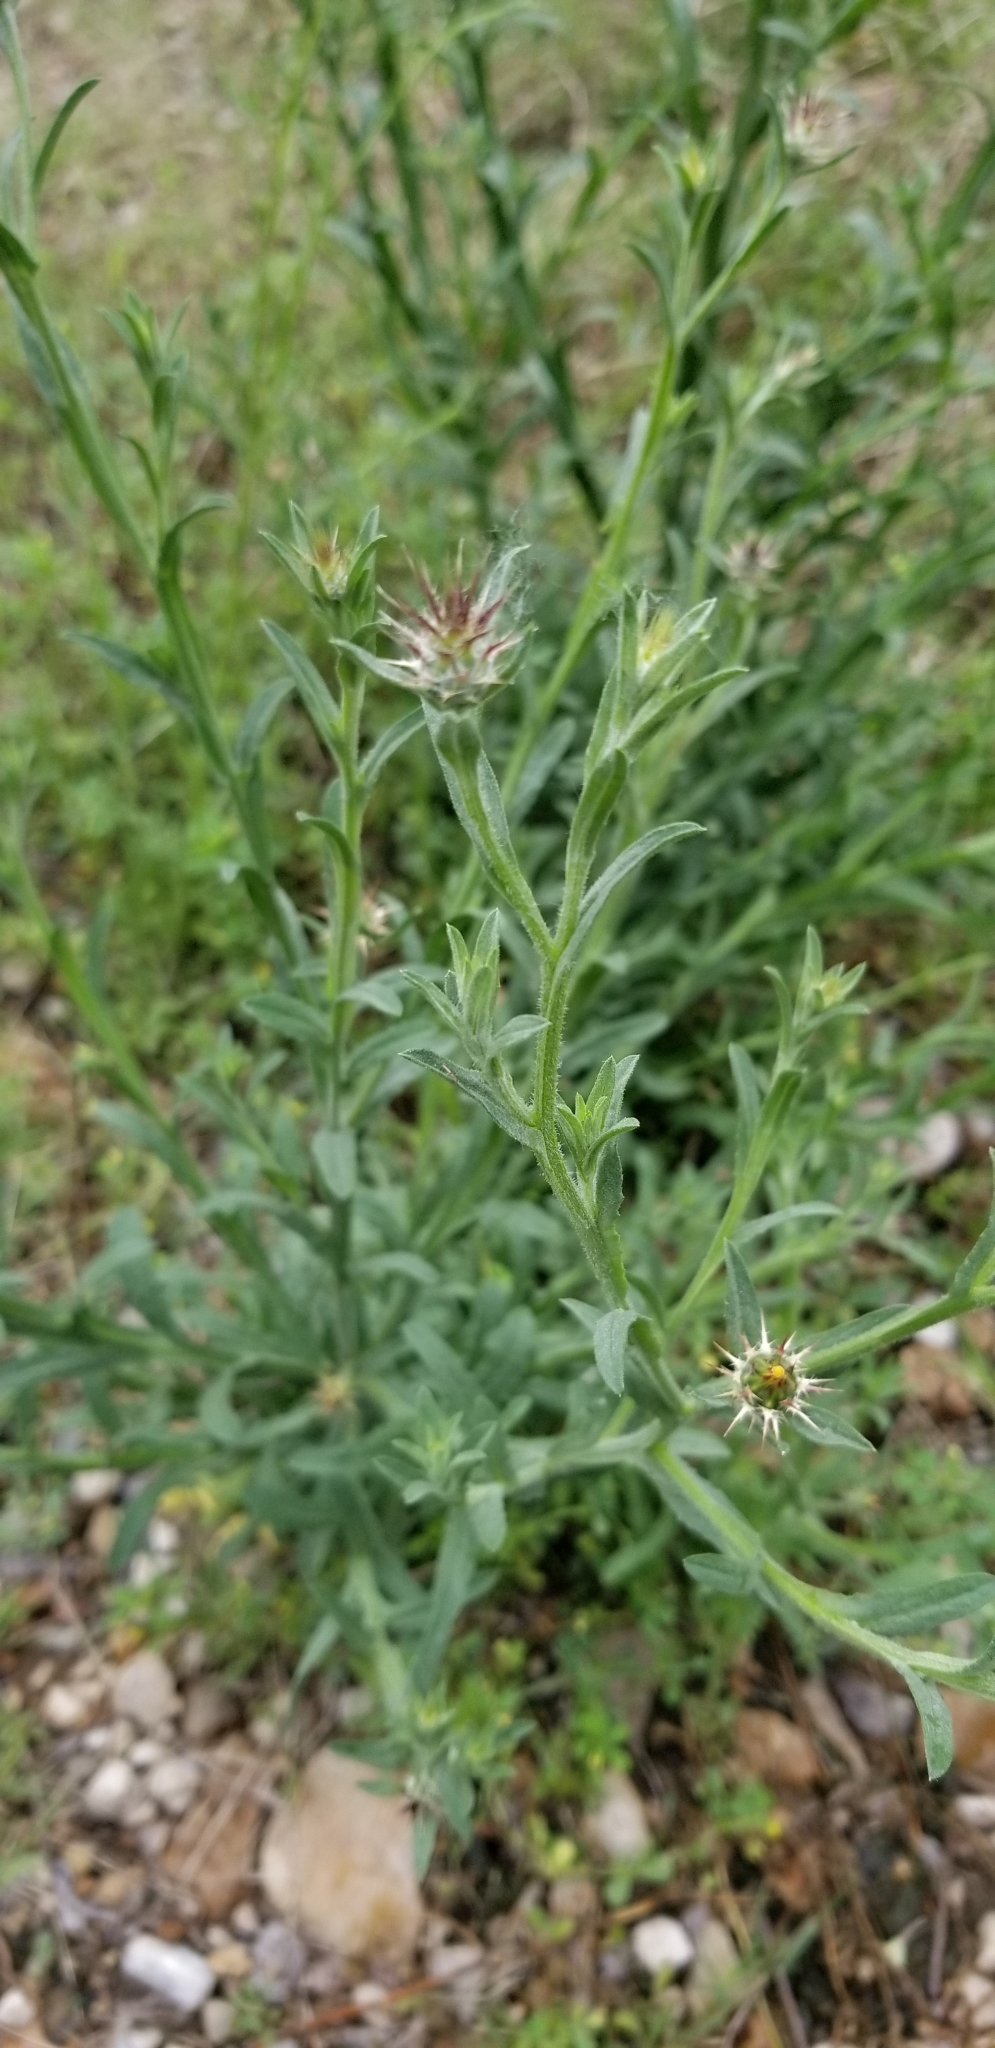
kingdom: Plantae
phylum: Tracheophyta
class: Magnoliopsida
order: Asterales
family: Asteraceae
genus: Centaurea
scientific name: Centaurea melitensis
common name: Maltese star-thistle
